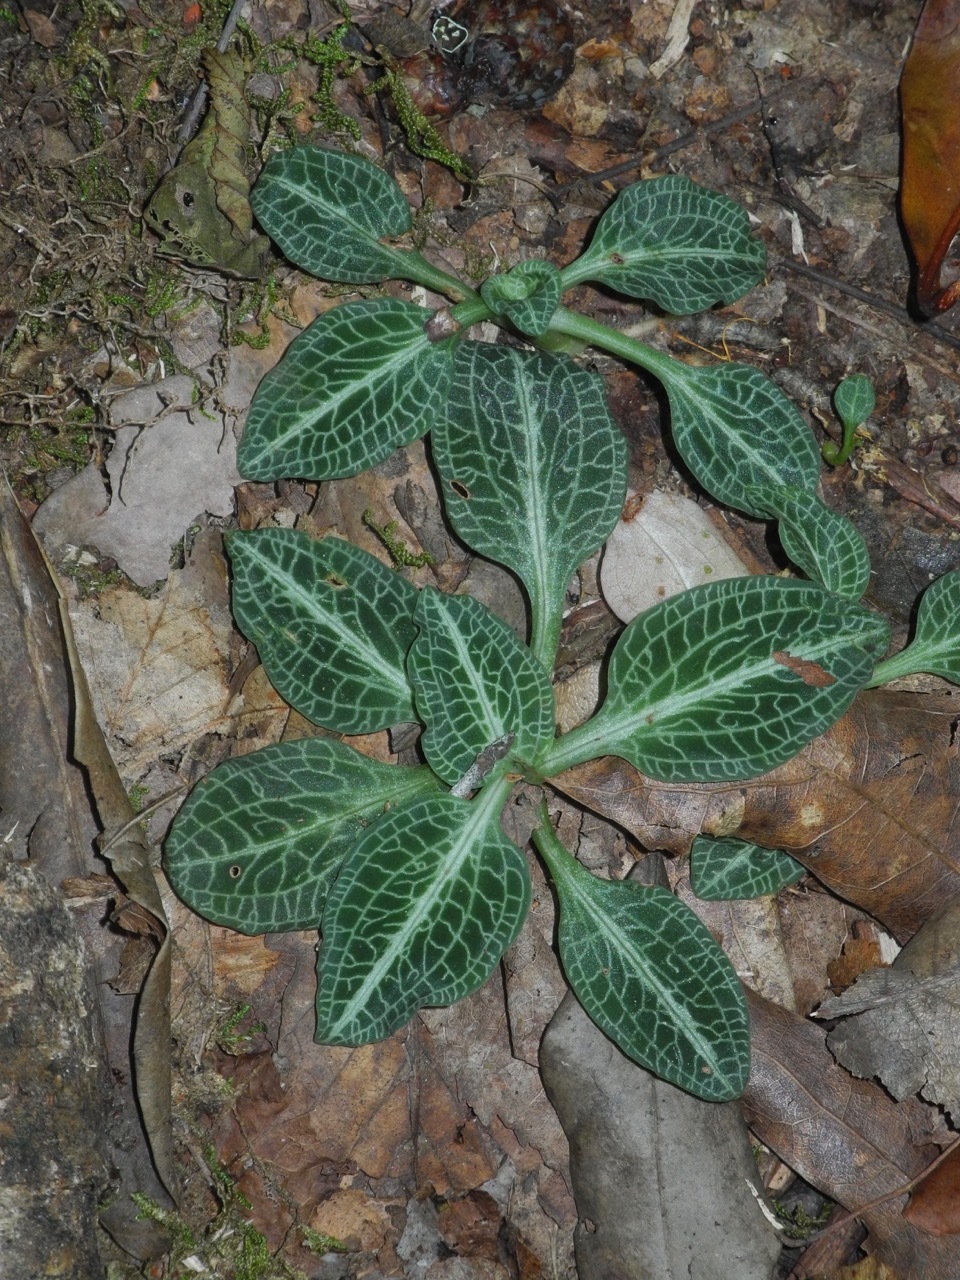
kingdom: Plantae
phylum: Tracheophyta
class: Liliopsida
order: Asparagales
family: Orchidaceae
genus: Goodyera
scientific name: Goodyera pubescens
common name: Downy rattlesnake-plantain
